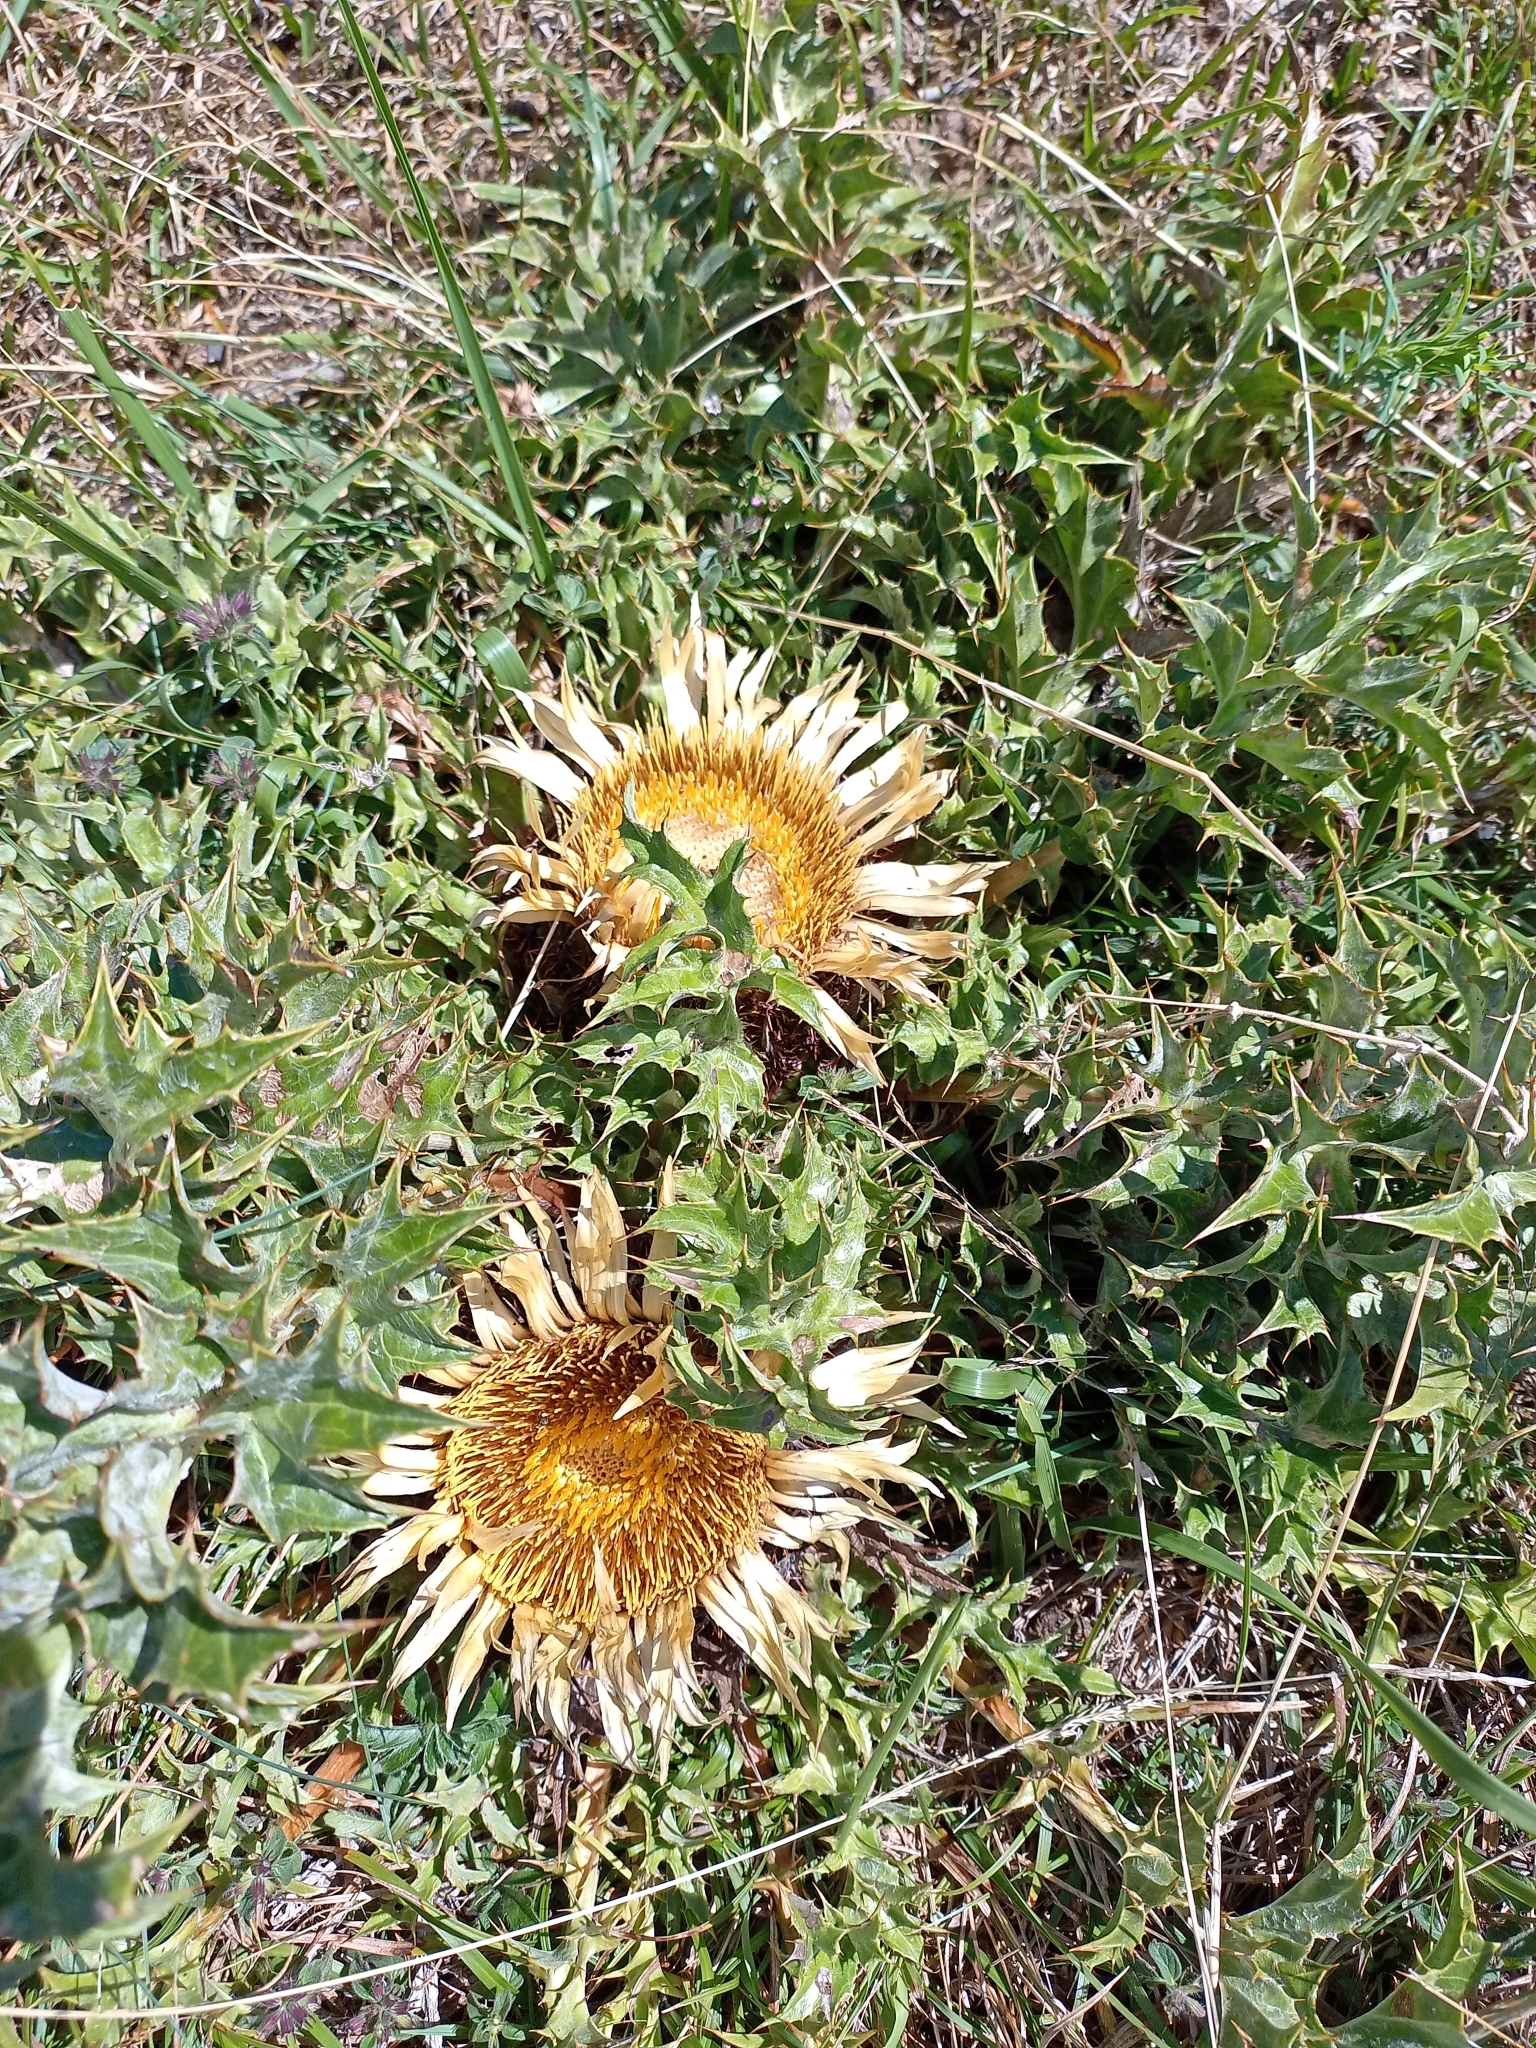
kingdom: Plantae
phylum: Tracheophyta
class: Magnoliopsida
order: Asterales
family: Asteraceae
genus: Carlina
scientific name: Carlina acanthifolia
